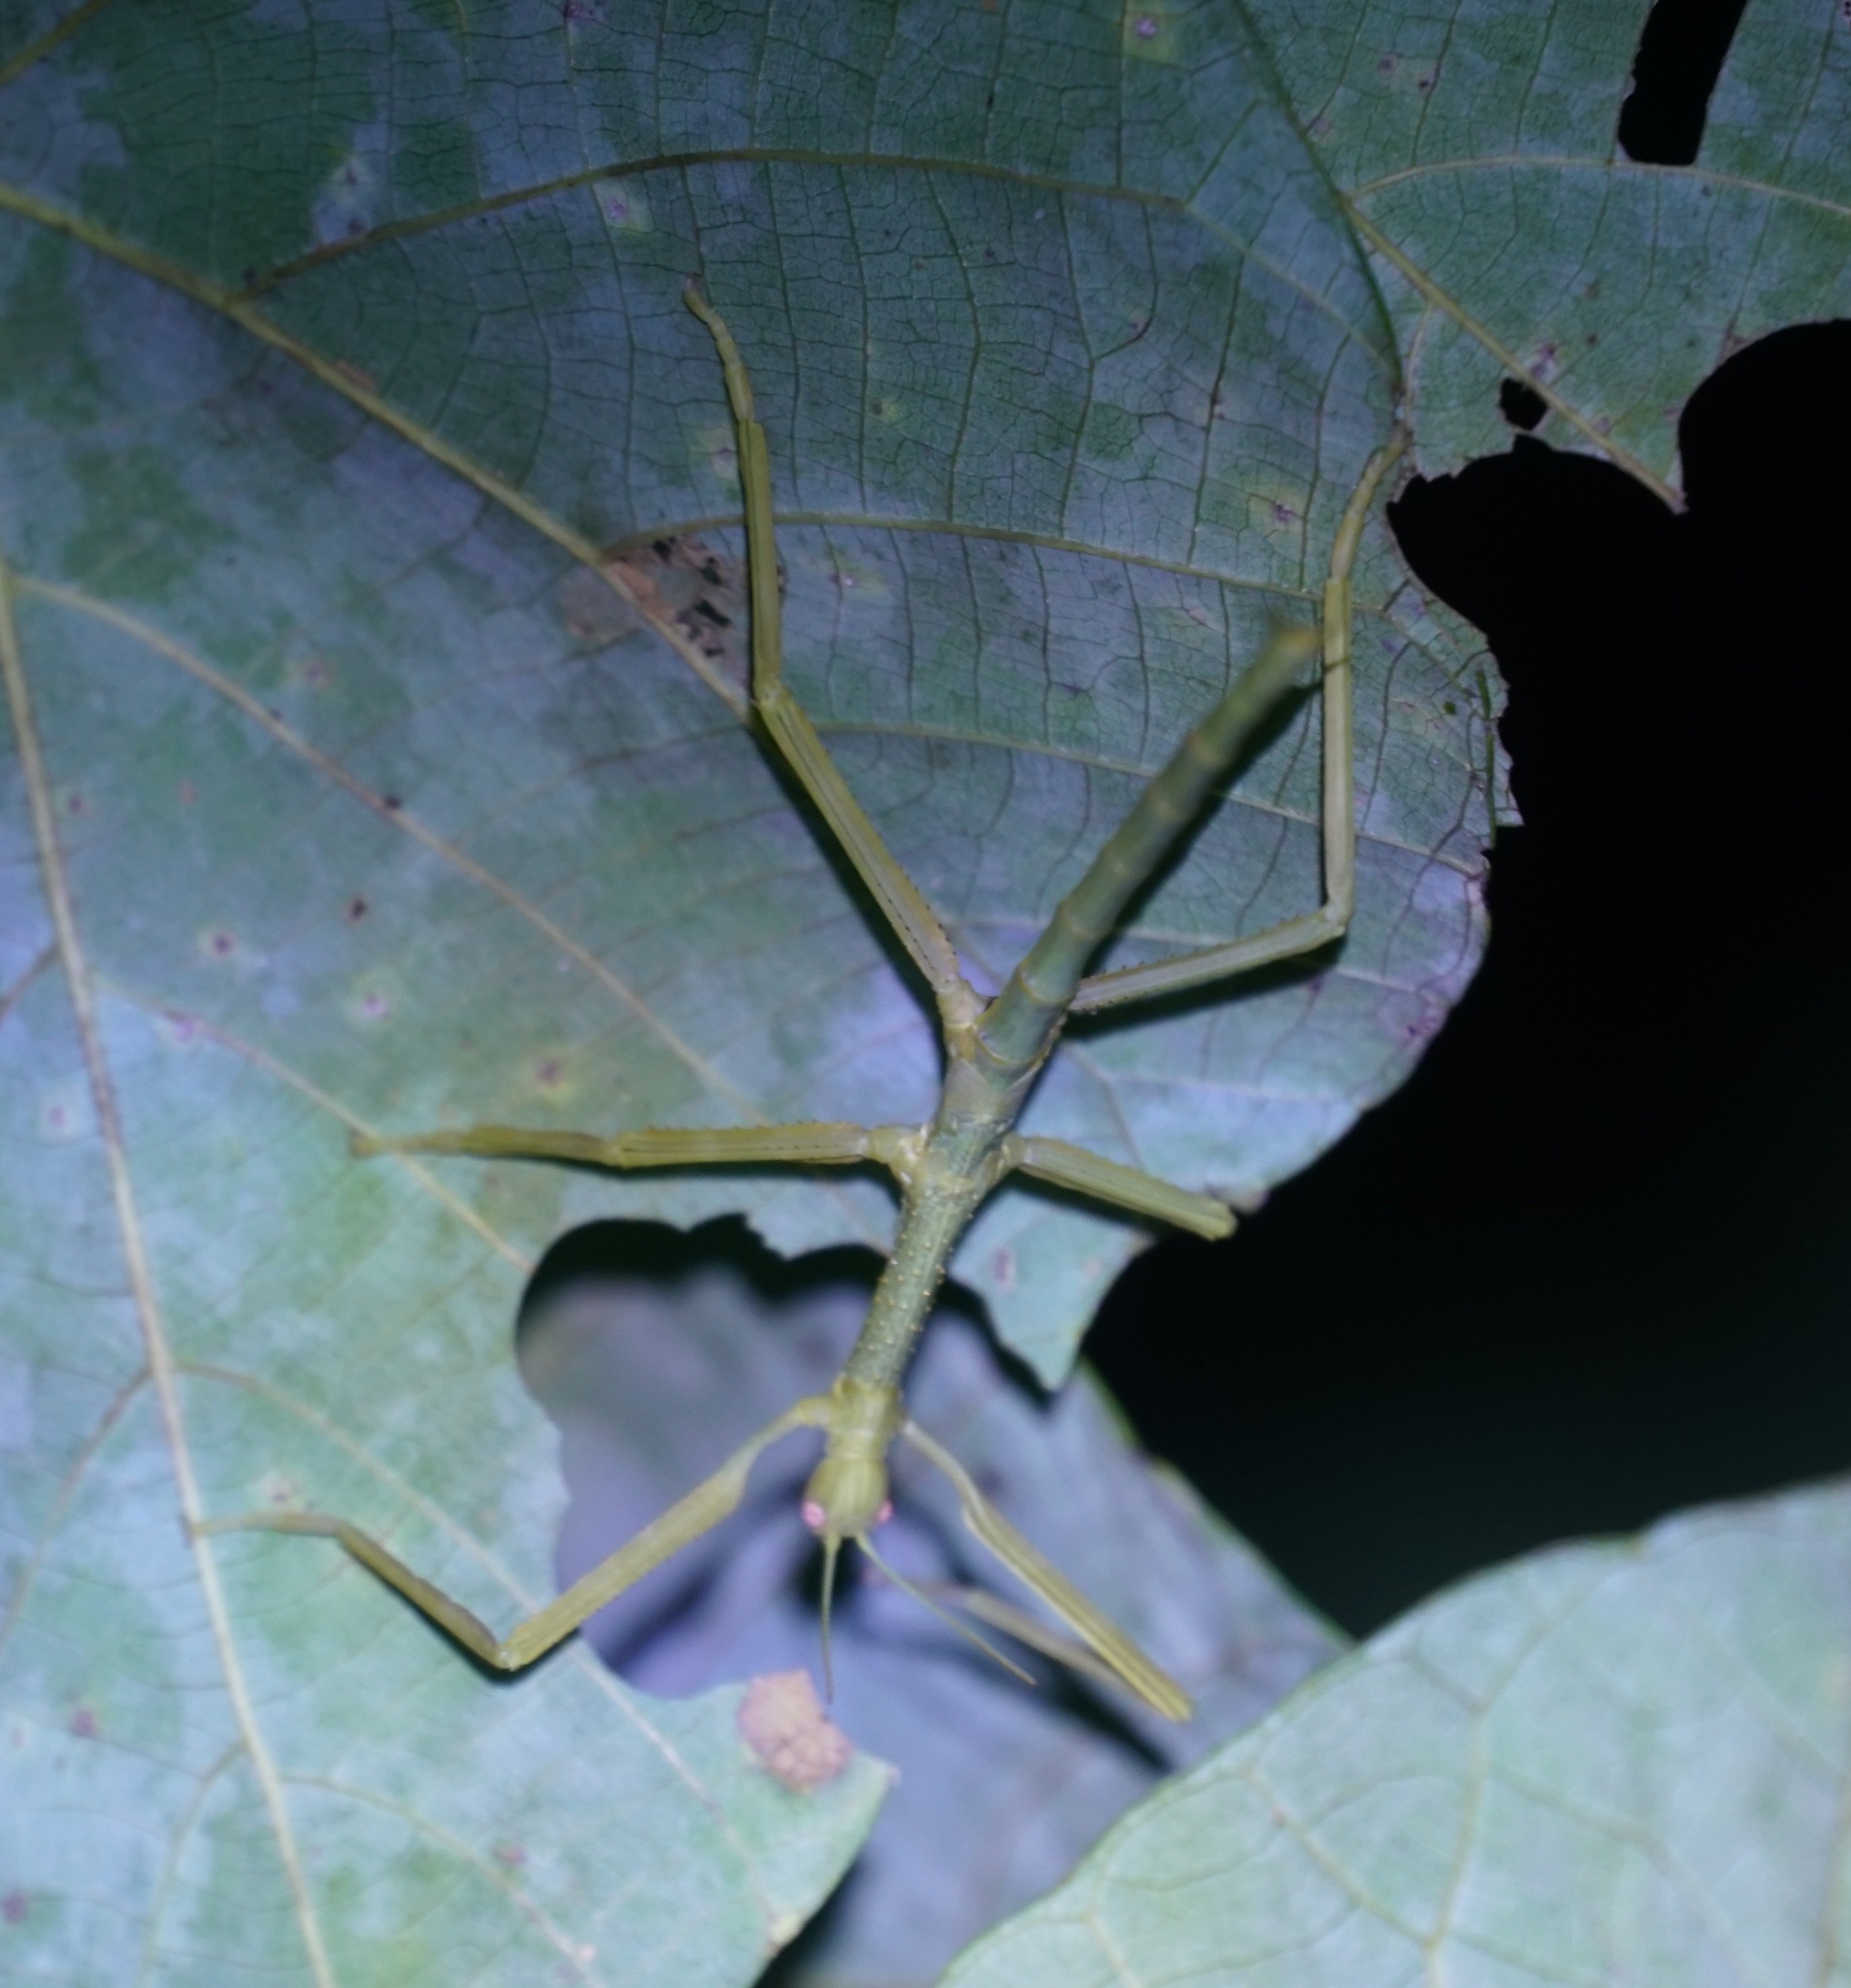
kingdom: Animalia
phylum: Arthropoda
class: Insecta
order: Phasmida
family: Phasmatidae
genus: Anchiale
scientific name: Anchiale briareus
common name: Strong stick insect
